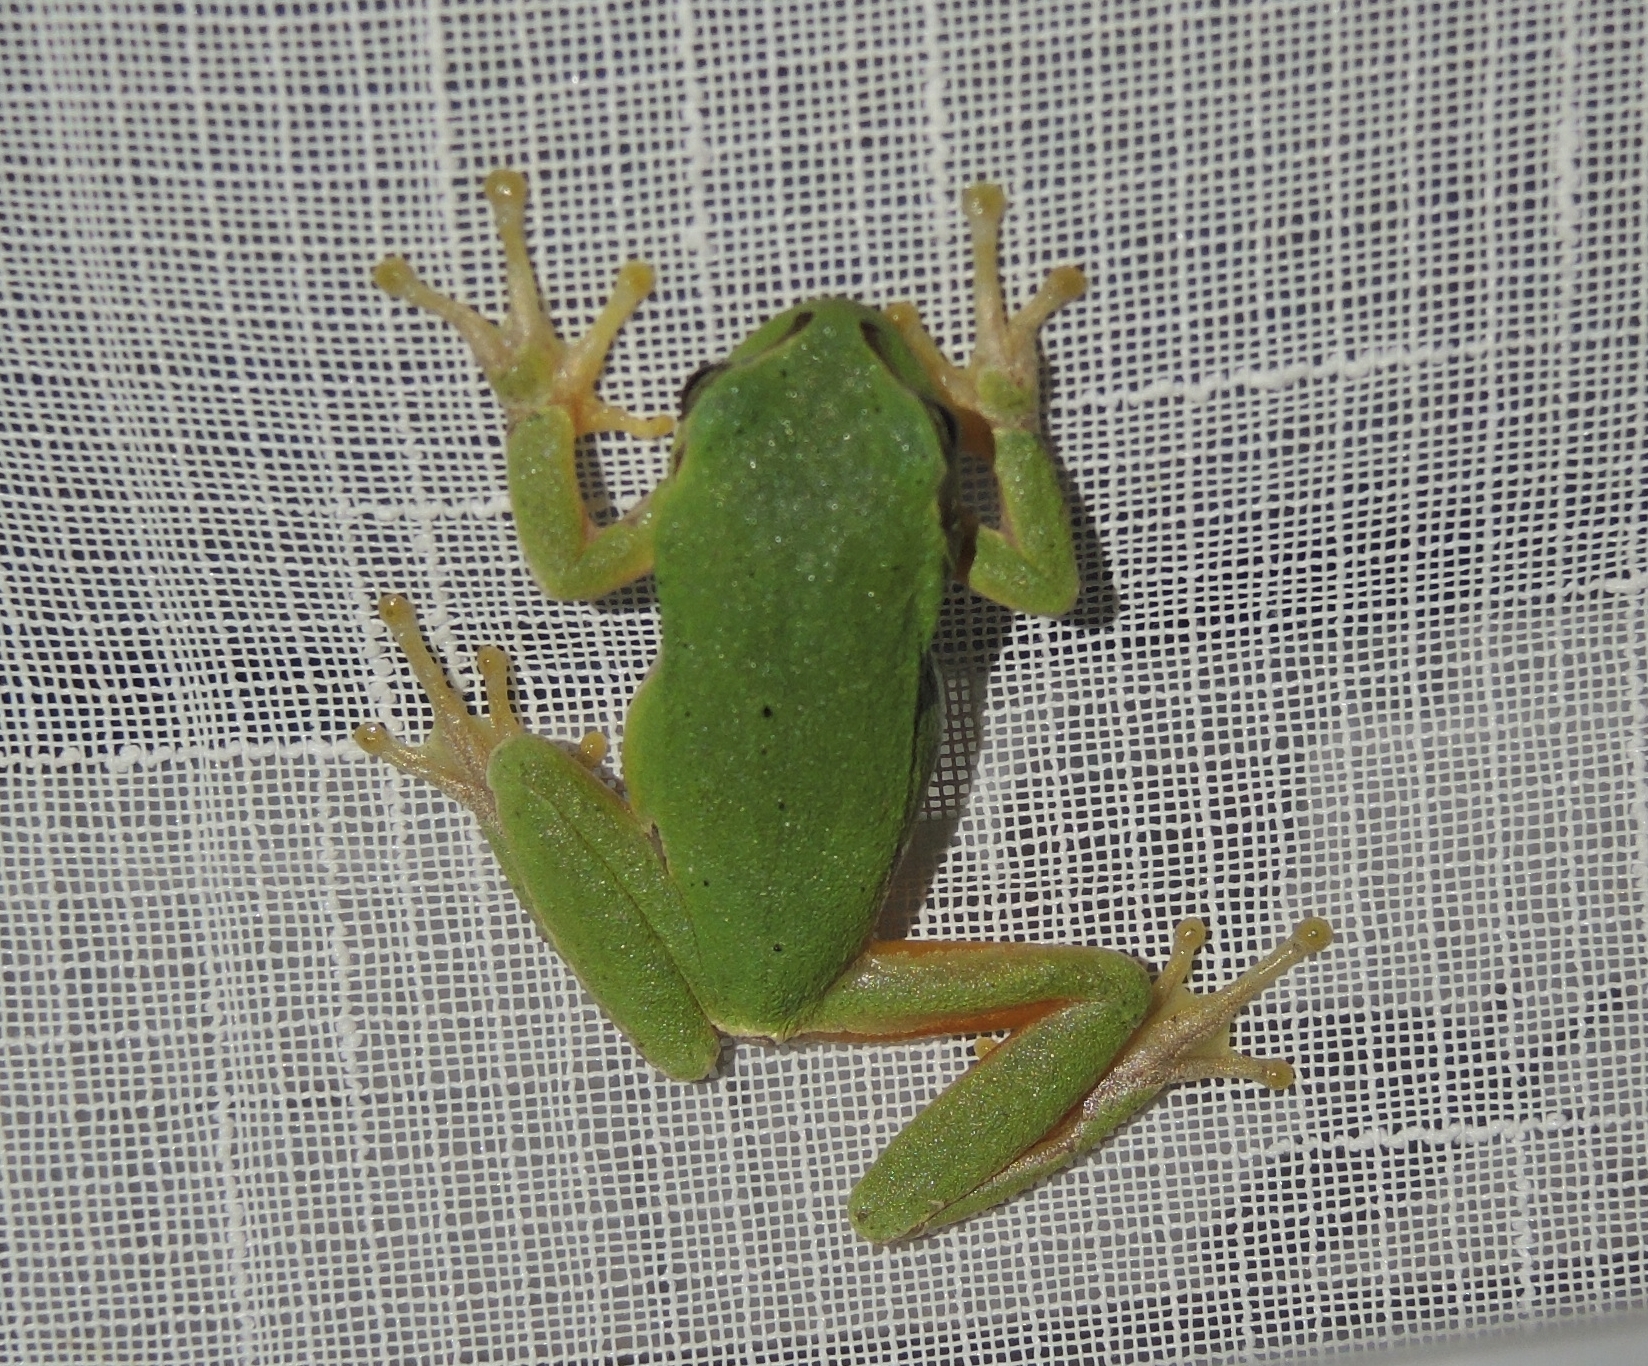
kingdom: Animalia
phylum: Chordata
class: Amphibia
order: Anura
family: Hylidae
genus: Hyla
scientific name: Hyla orientalis
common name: Caucasian treefrog
